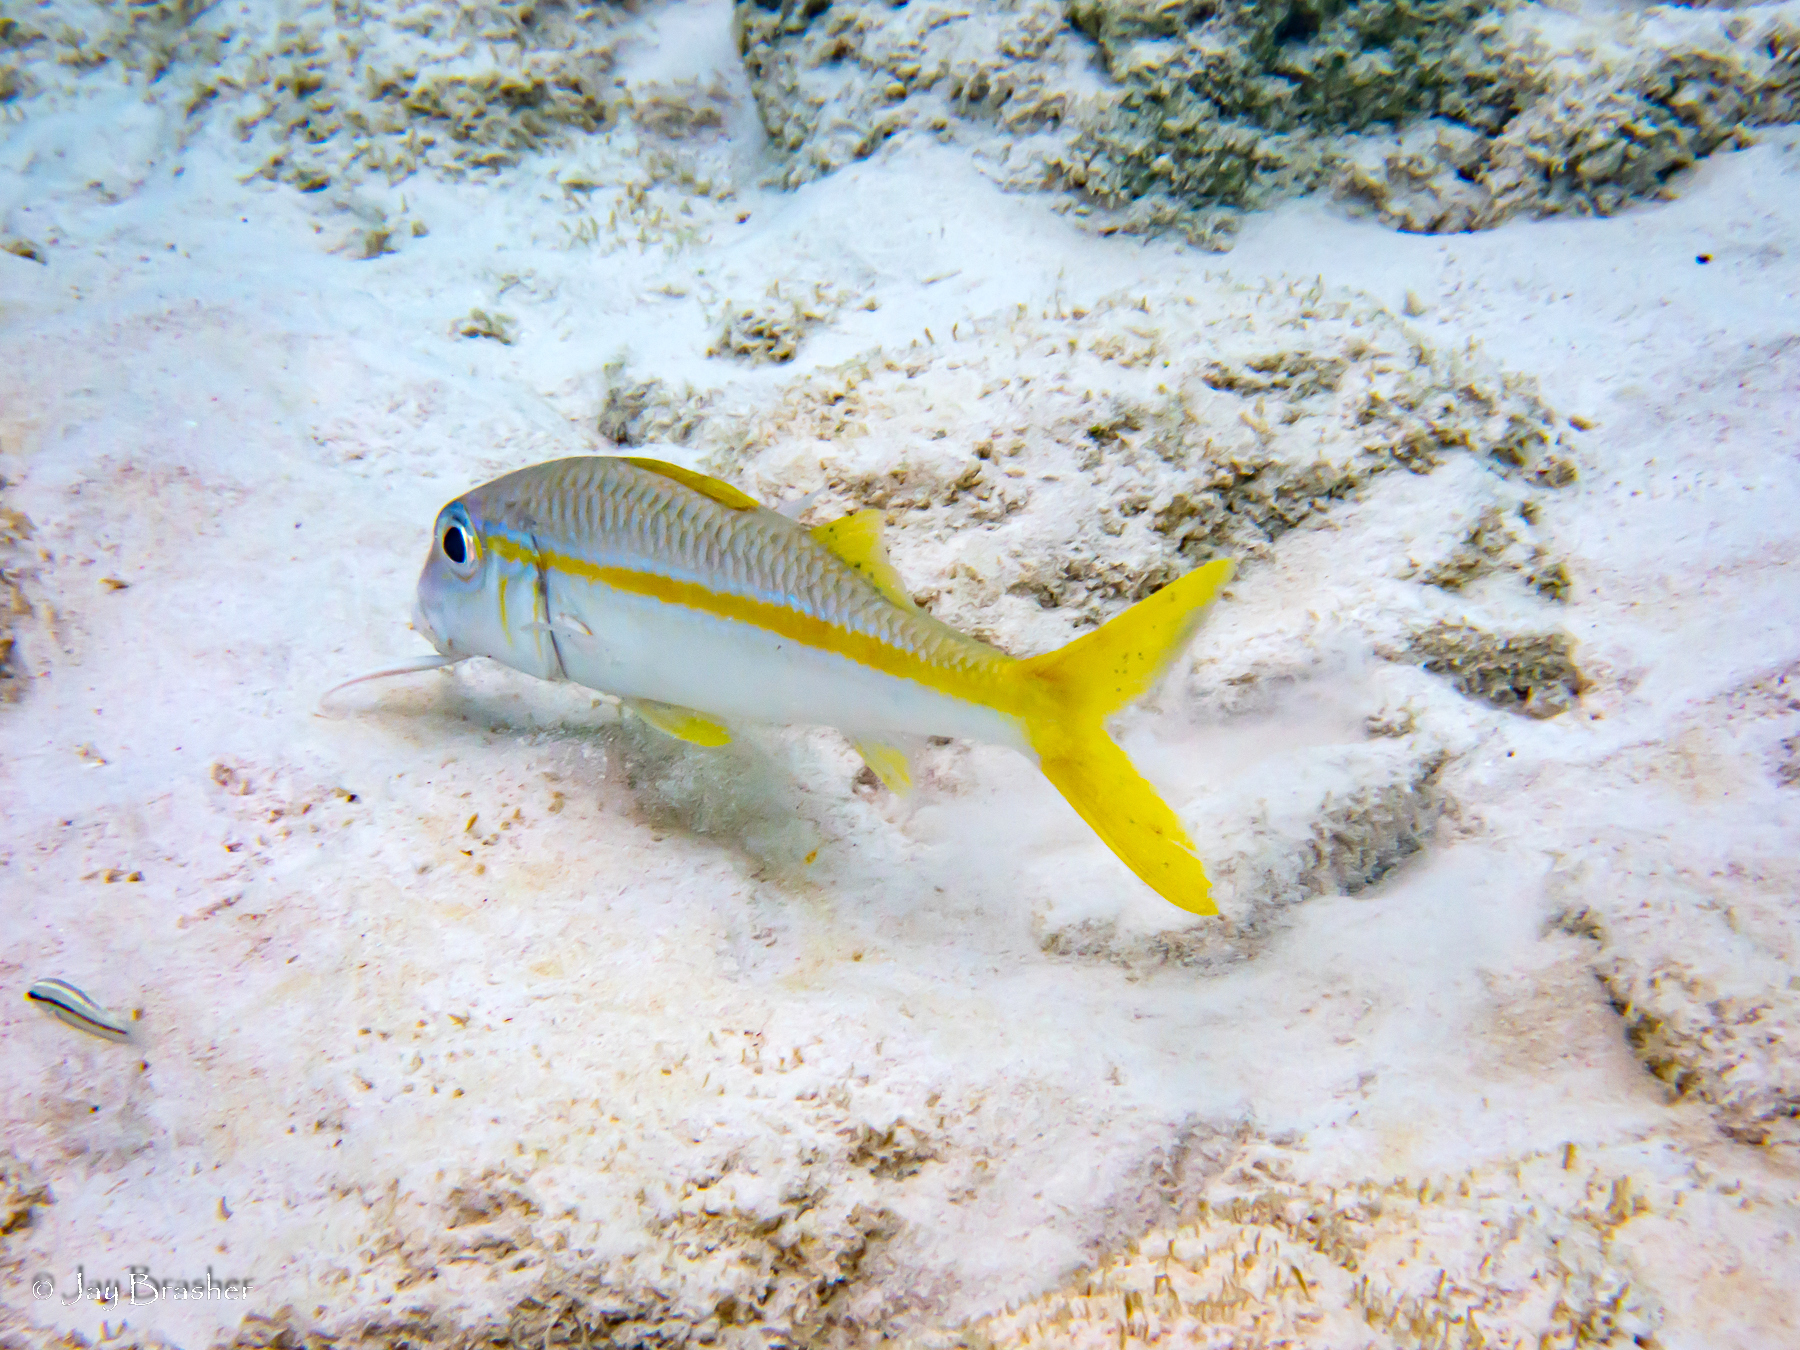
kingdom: Animalia
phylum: Chordata
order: Perciformes
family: Mullidae
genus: Mulloidichthys
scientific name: Mulloidichthys martinicus
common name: Yellow goatfish
